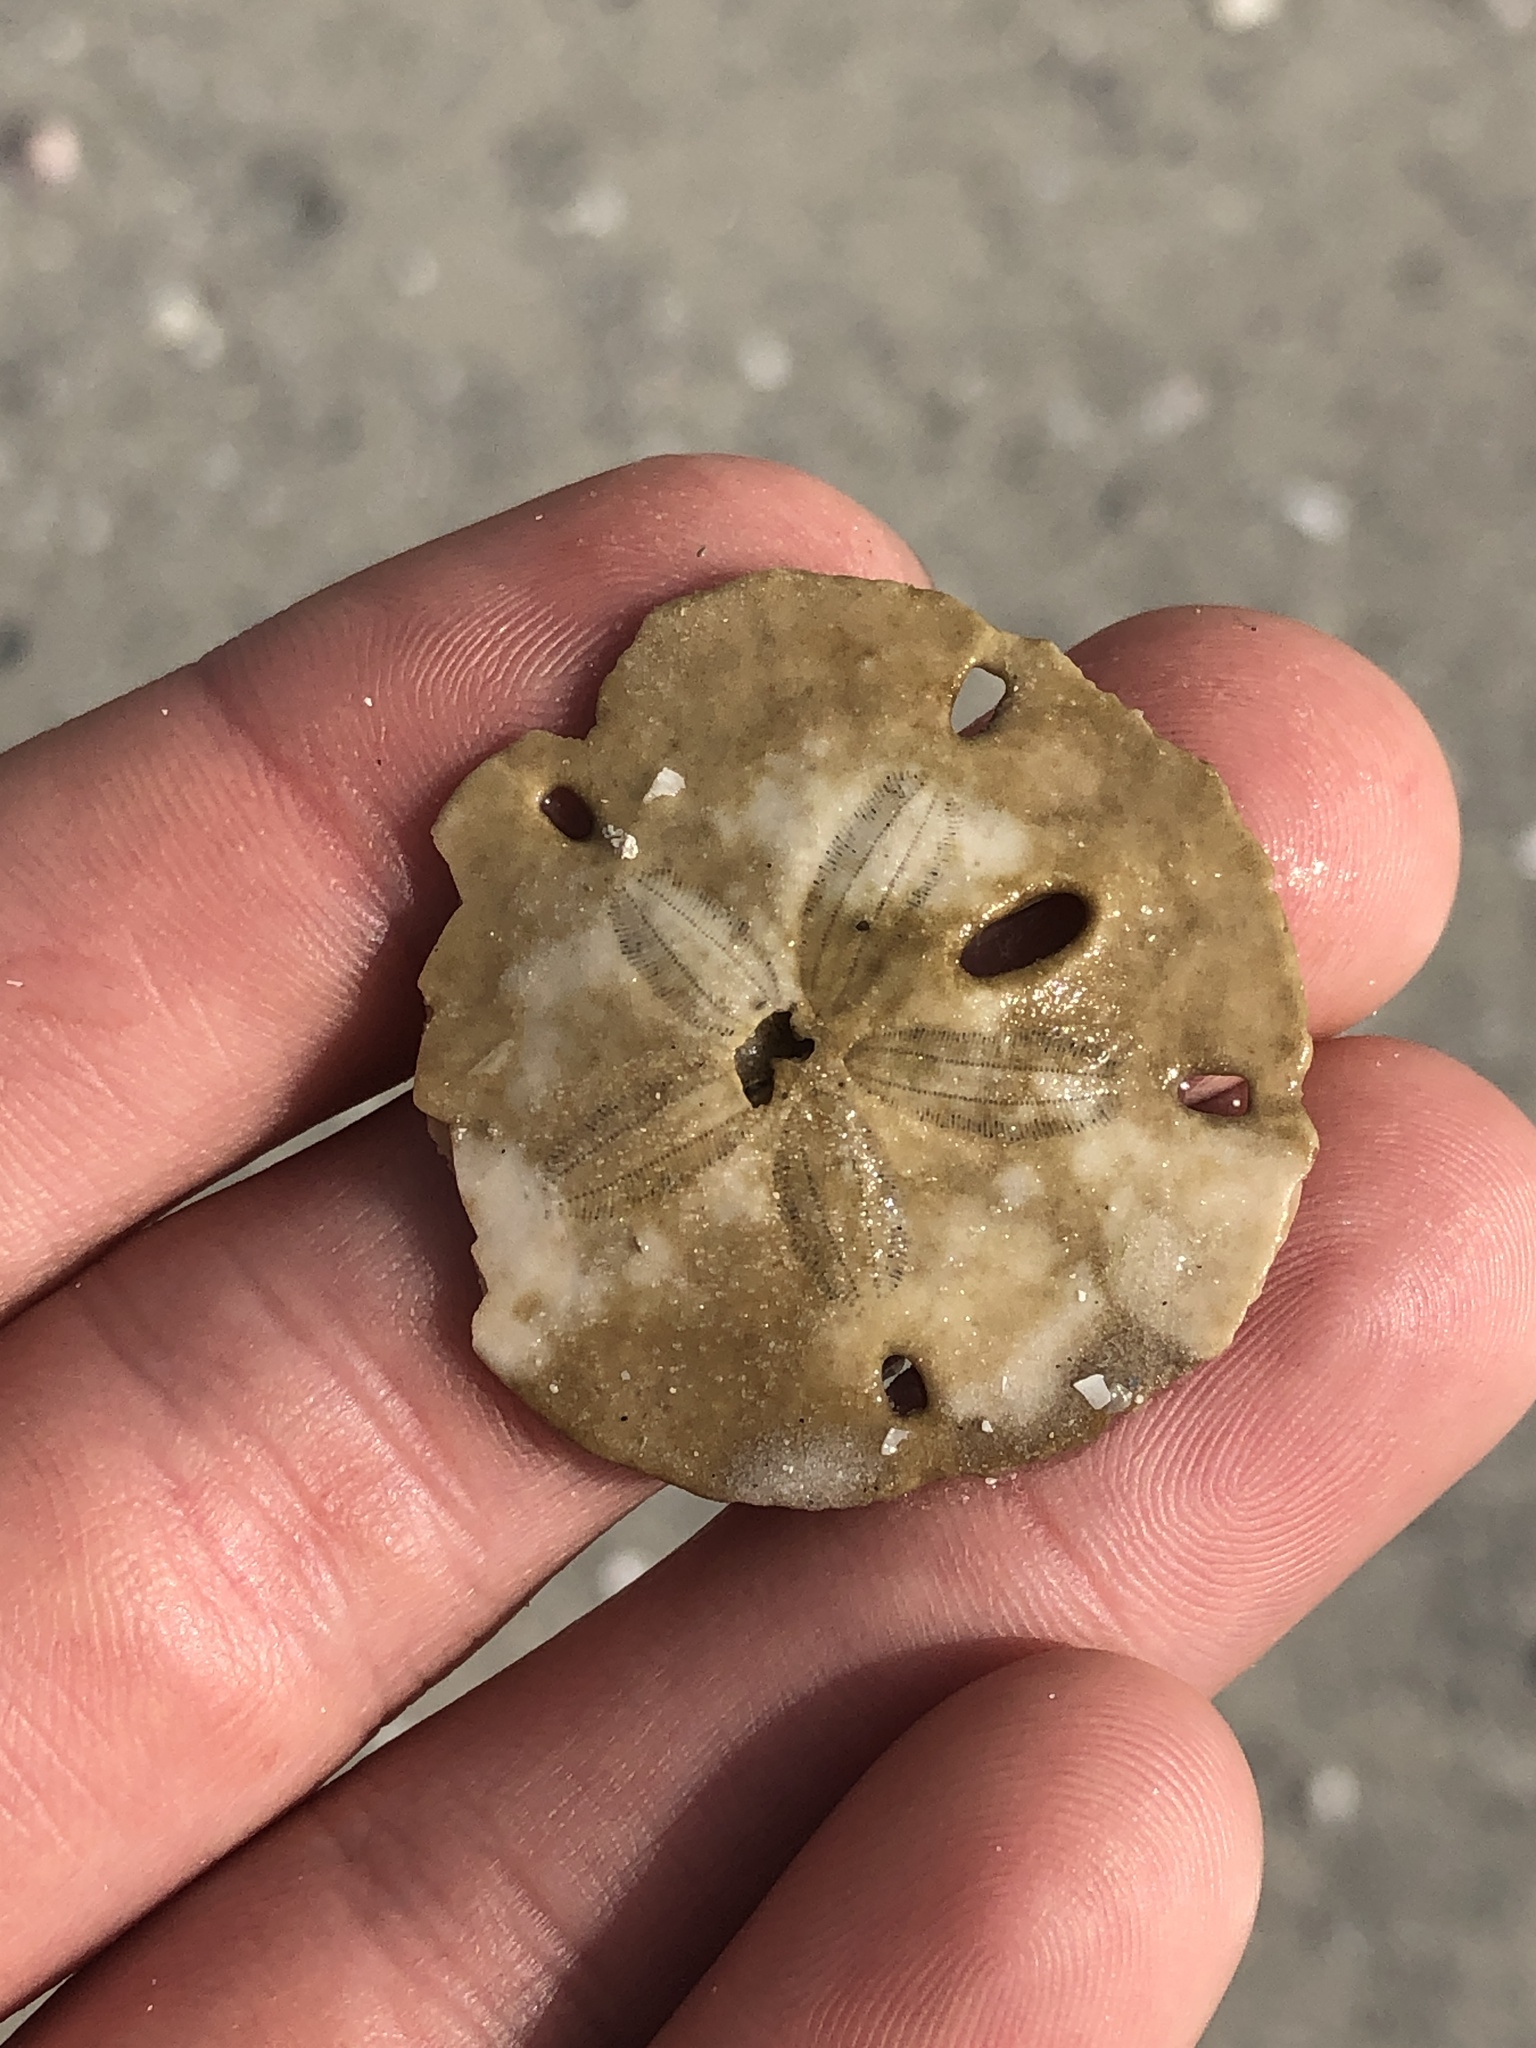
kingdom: Animalia
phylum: Echinodermata
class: Echinoidea
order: Echinolampadacea
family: Mellitidae
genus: Mellita
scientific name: Mellita quinquiesperforata
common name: Sand dollar
